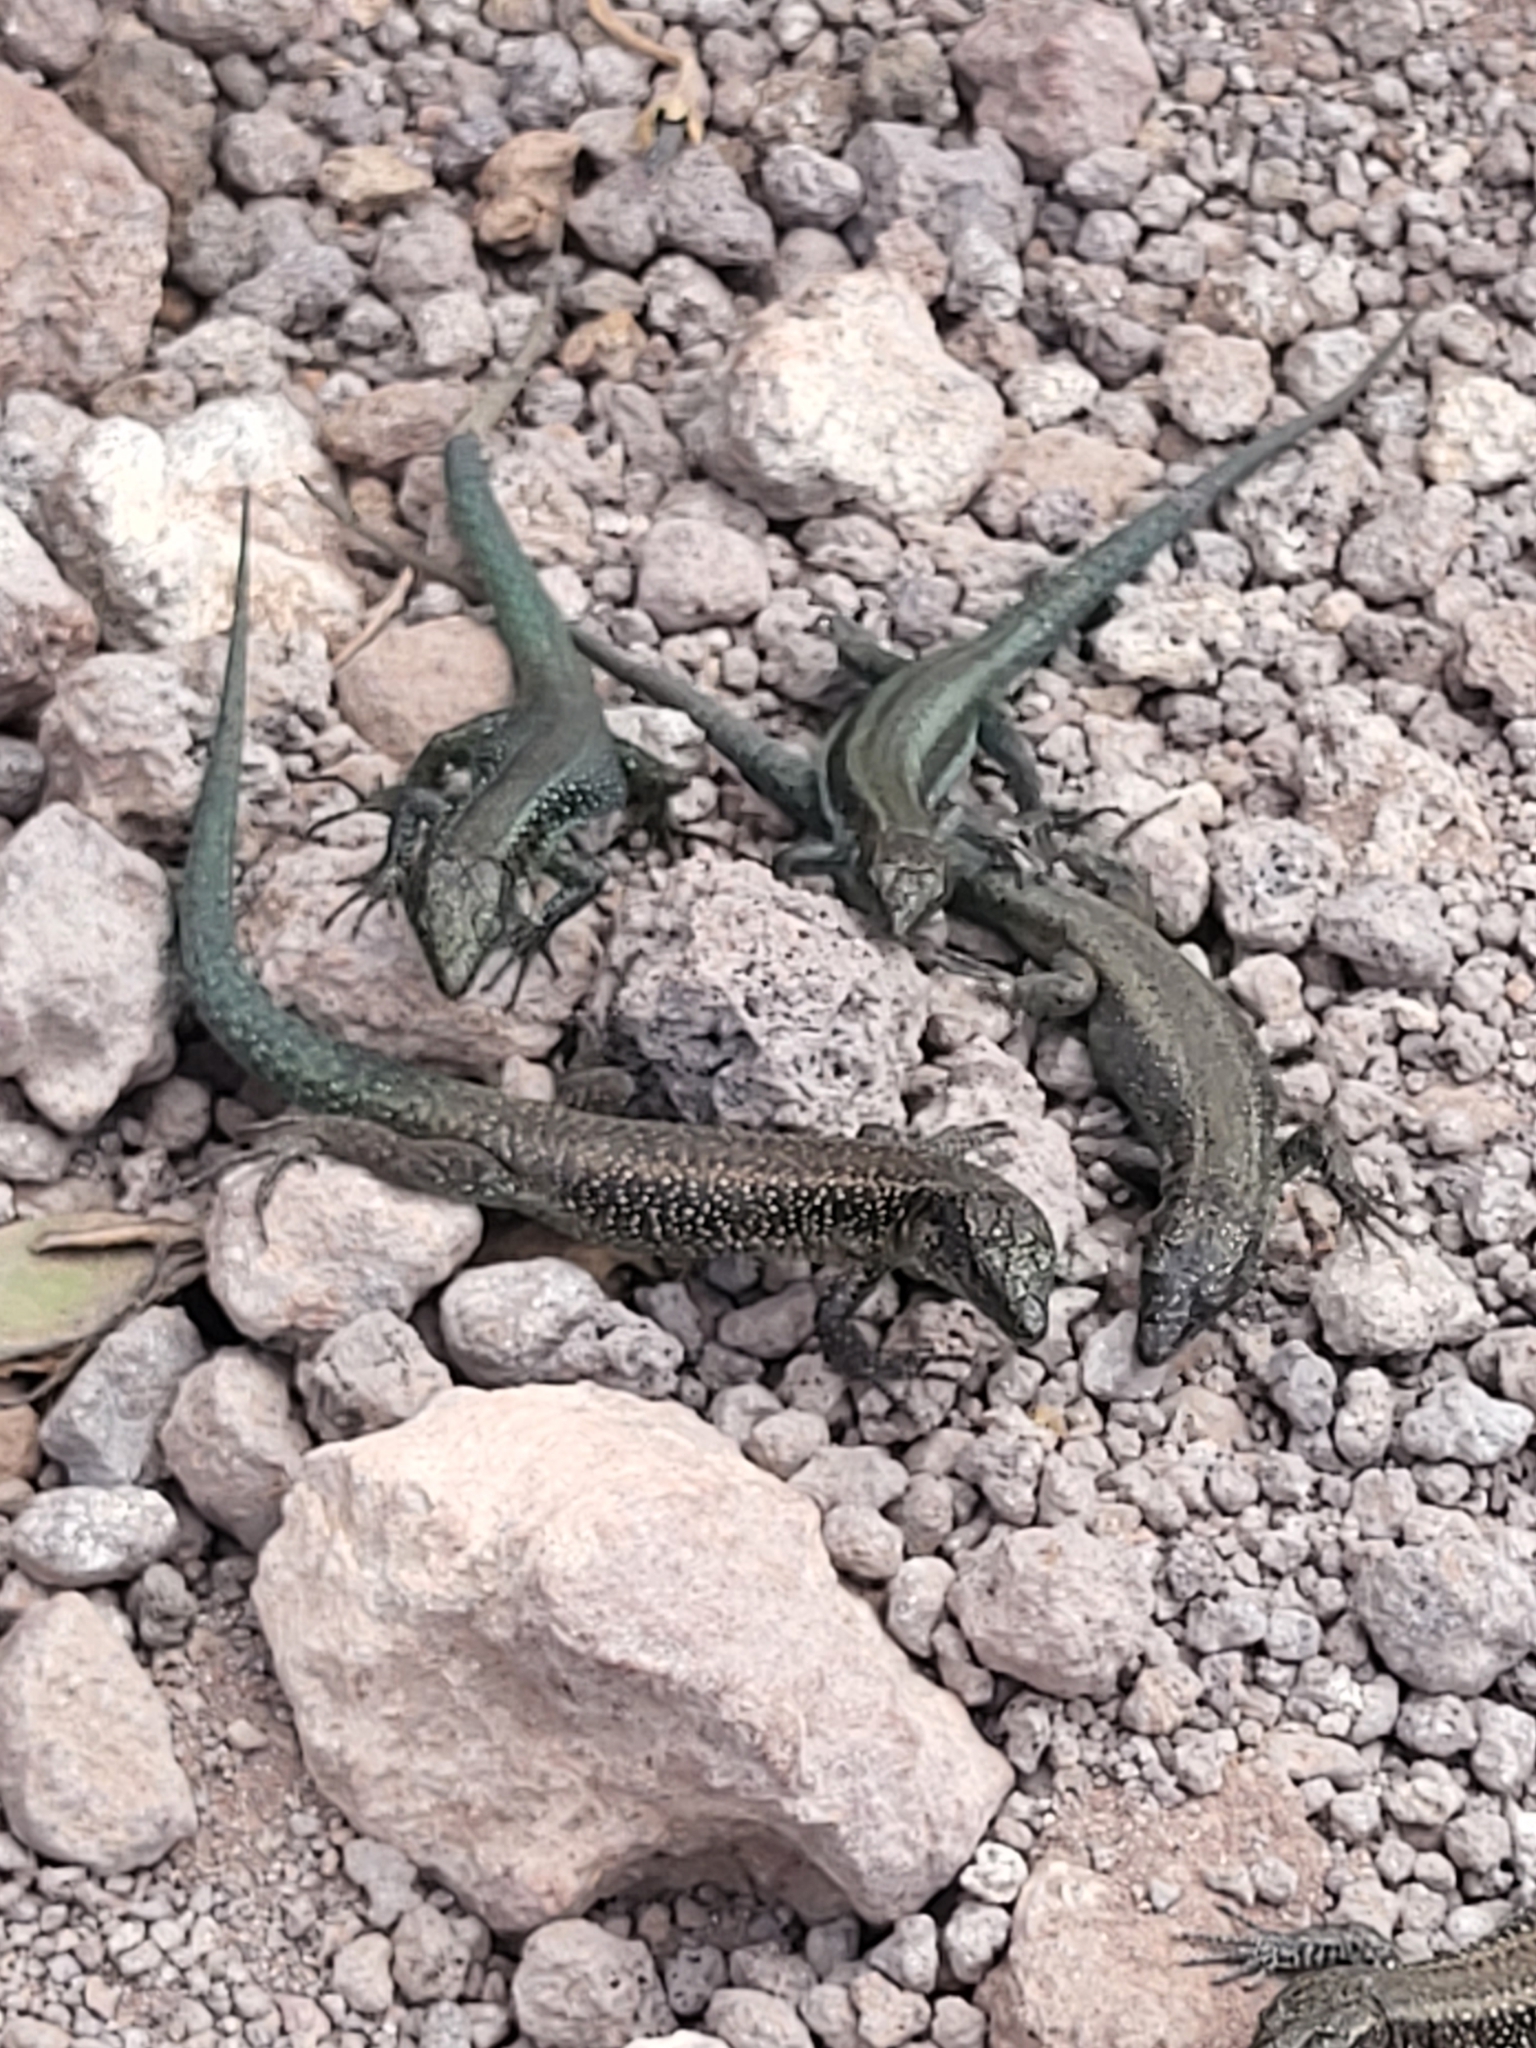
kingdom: Animalia
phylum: Chordata
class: Squamata
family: Lacertidae
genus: Teira
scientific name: Teira dugesii
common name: Madeira lizard
